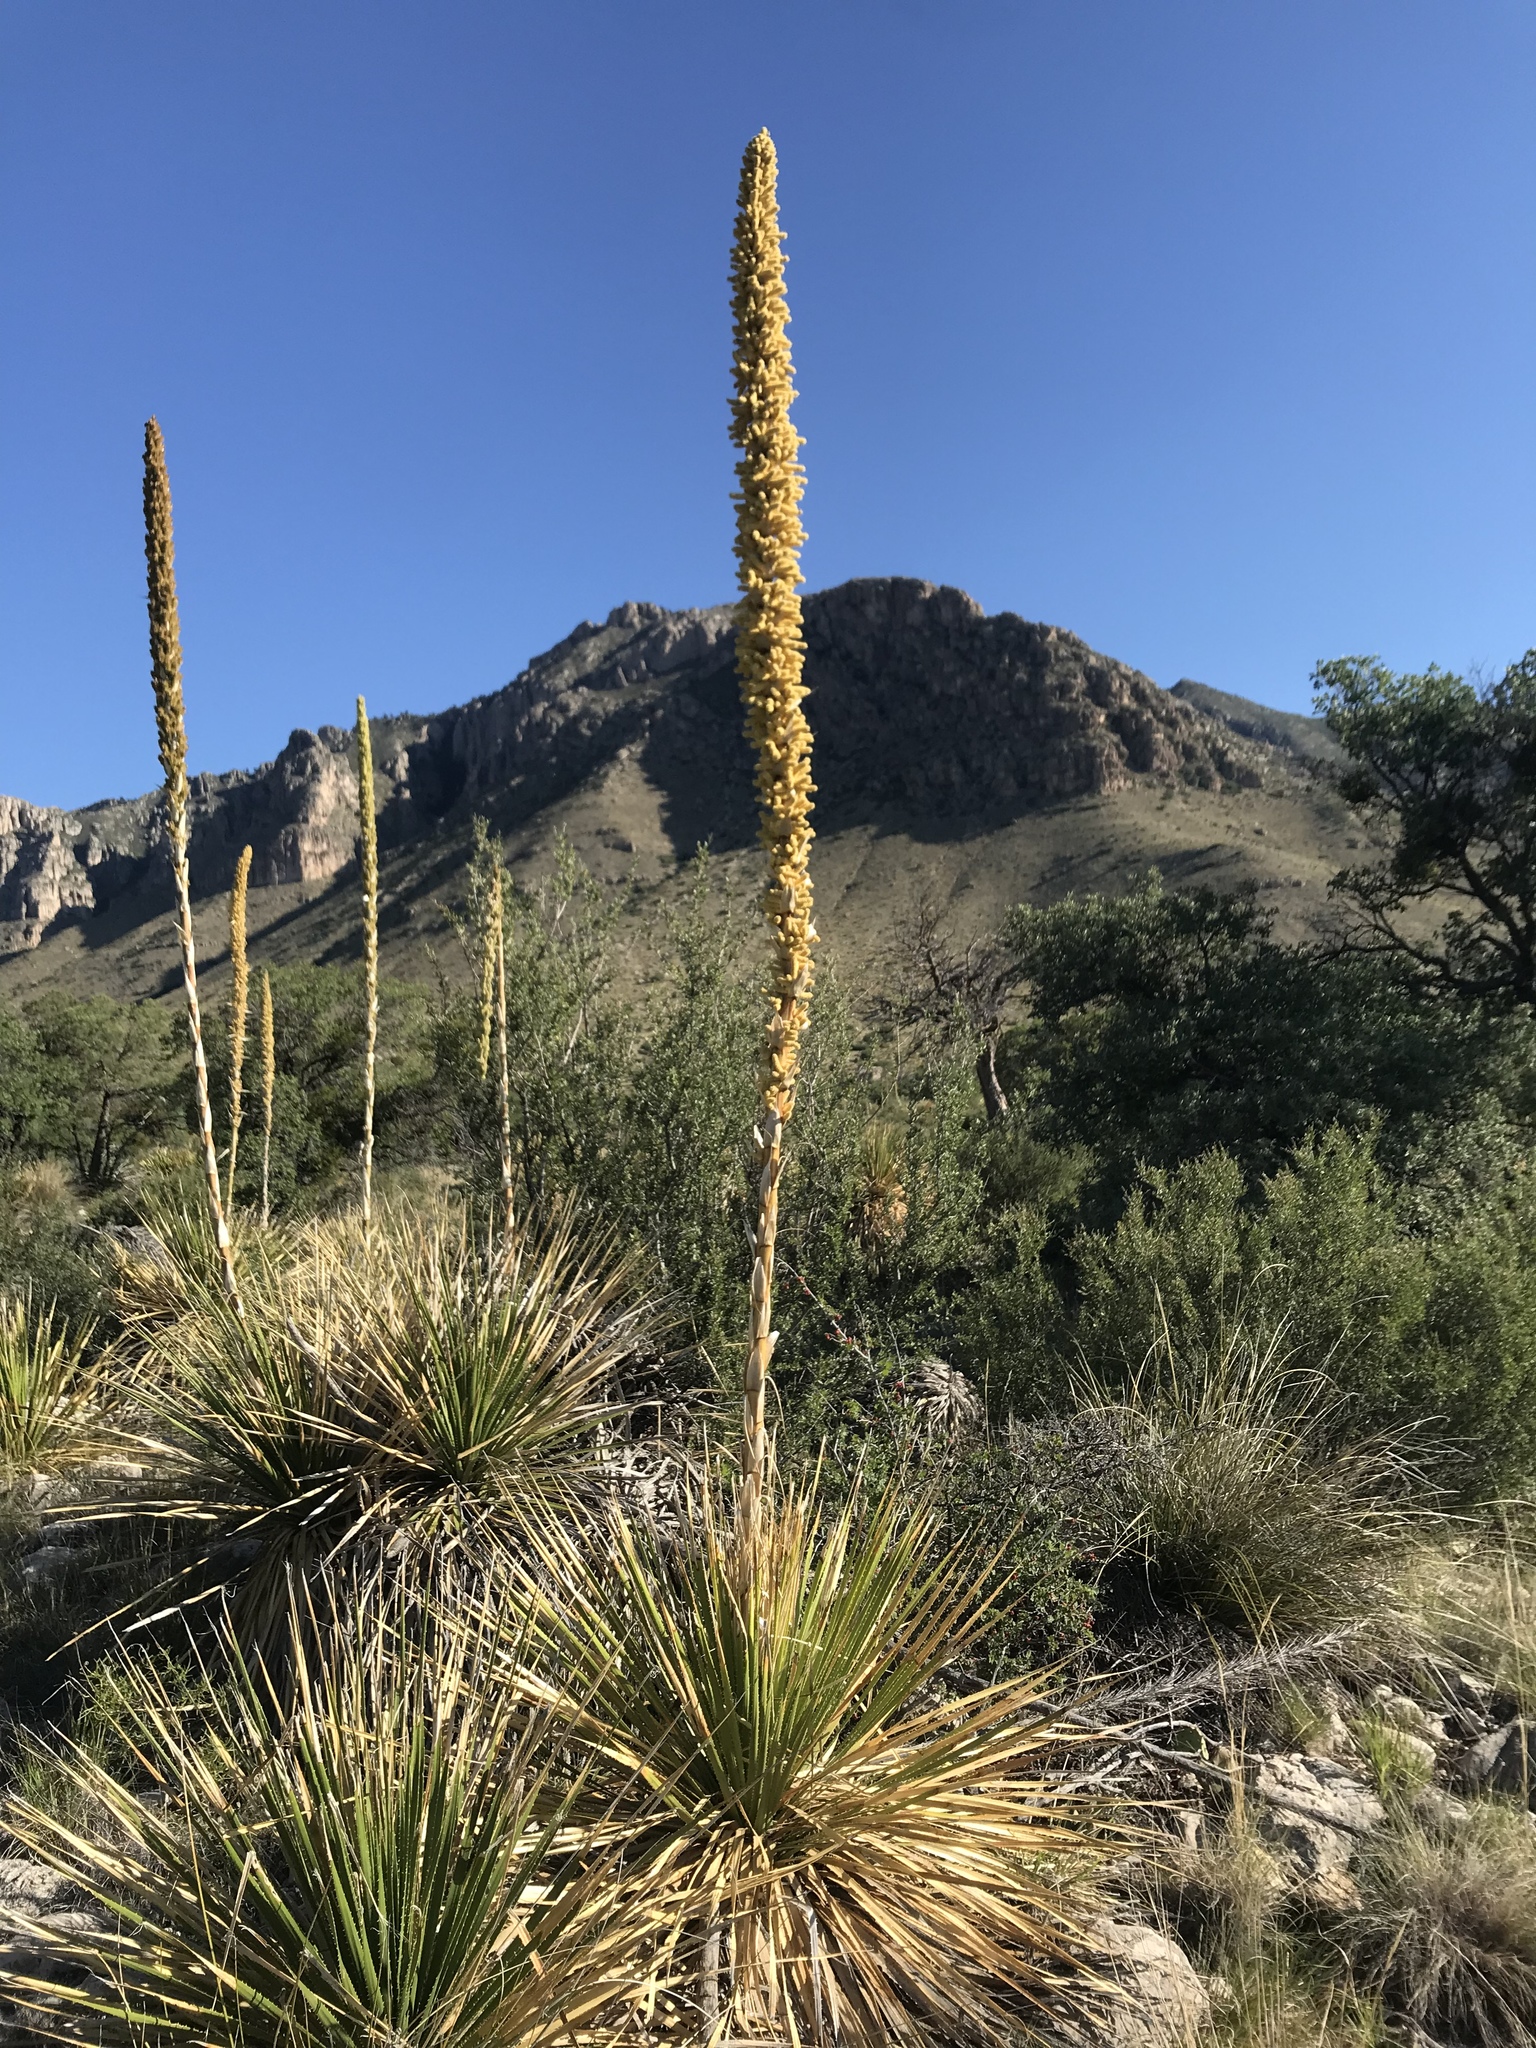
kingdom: Plantae
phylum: Tracheophyta
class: Liliopsida
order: Asparagales
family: Asparagaceae
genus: Dasylirion
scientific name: Dasylirion leiophyllum
